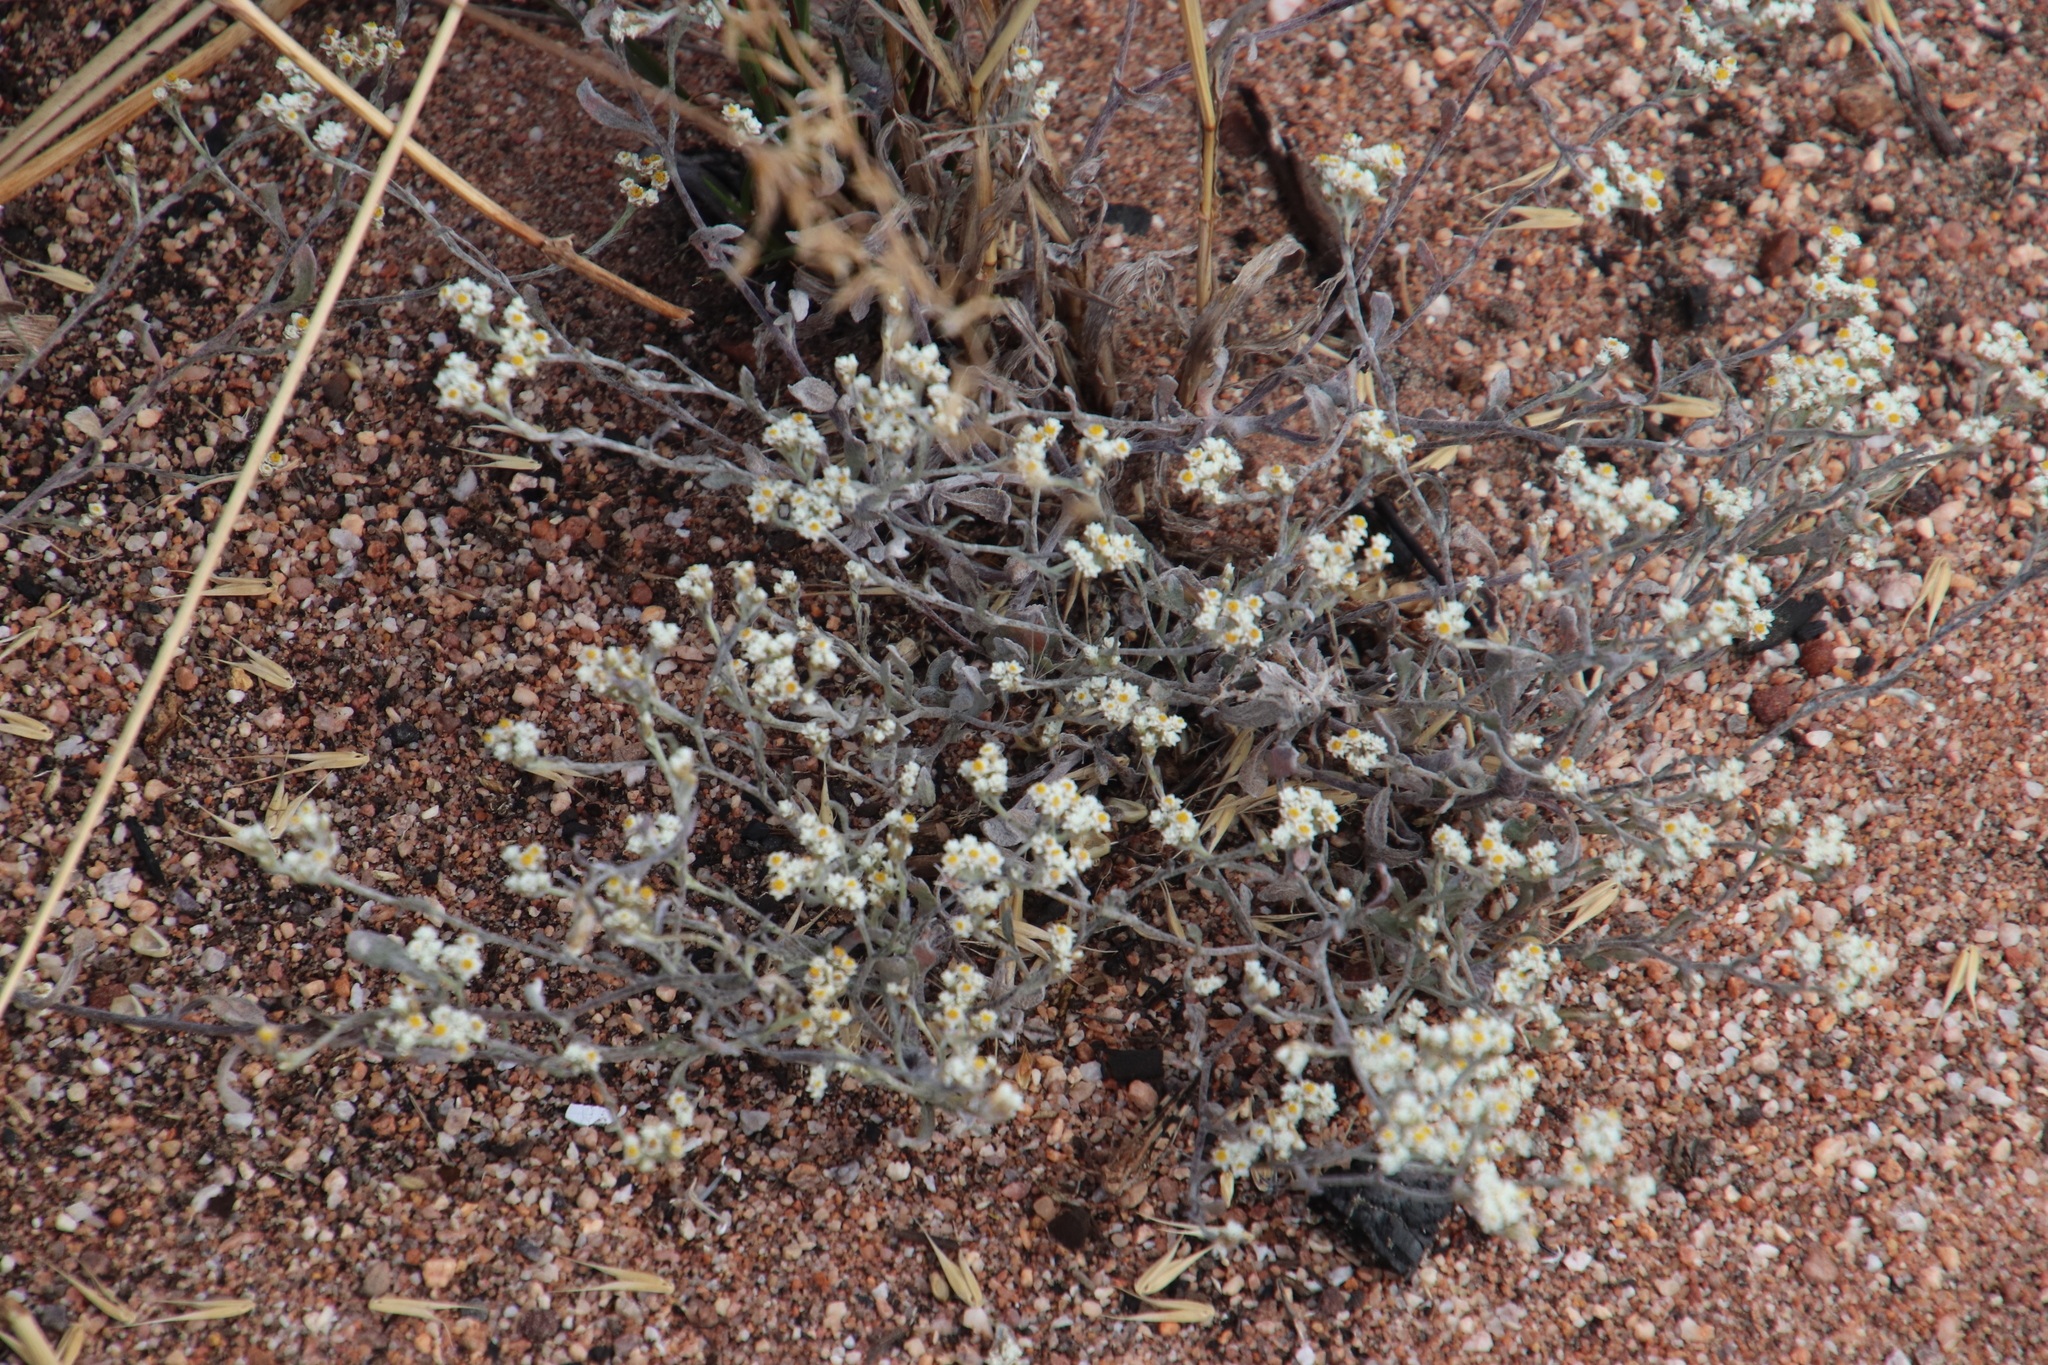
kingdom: Plantae
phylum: Tracheophyta
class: Magnoliopsida
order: Asterales
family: Asteraceae
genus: Helichrysum
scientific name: Helichrysum indicum
